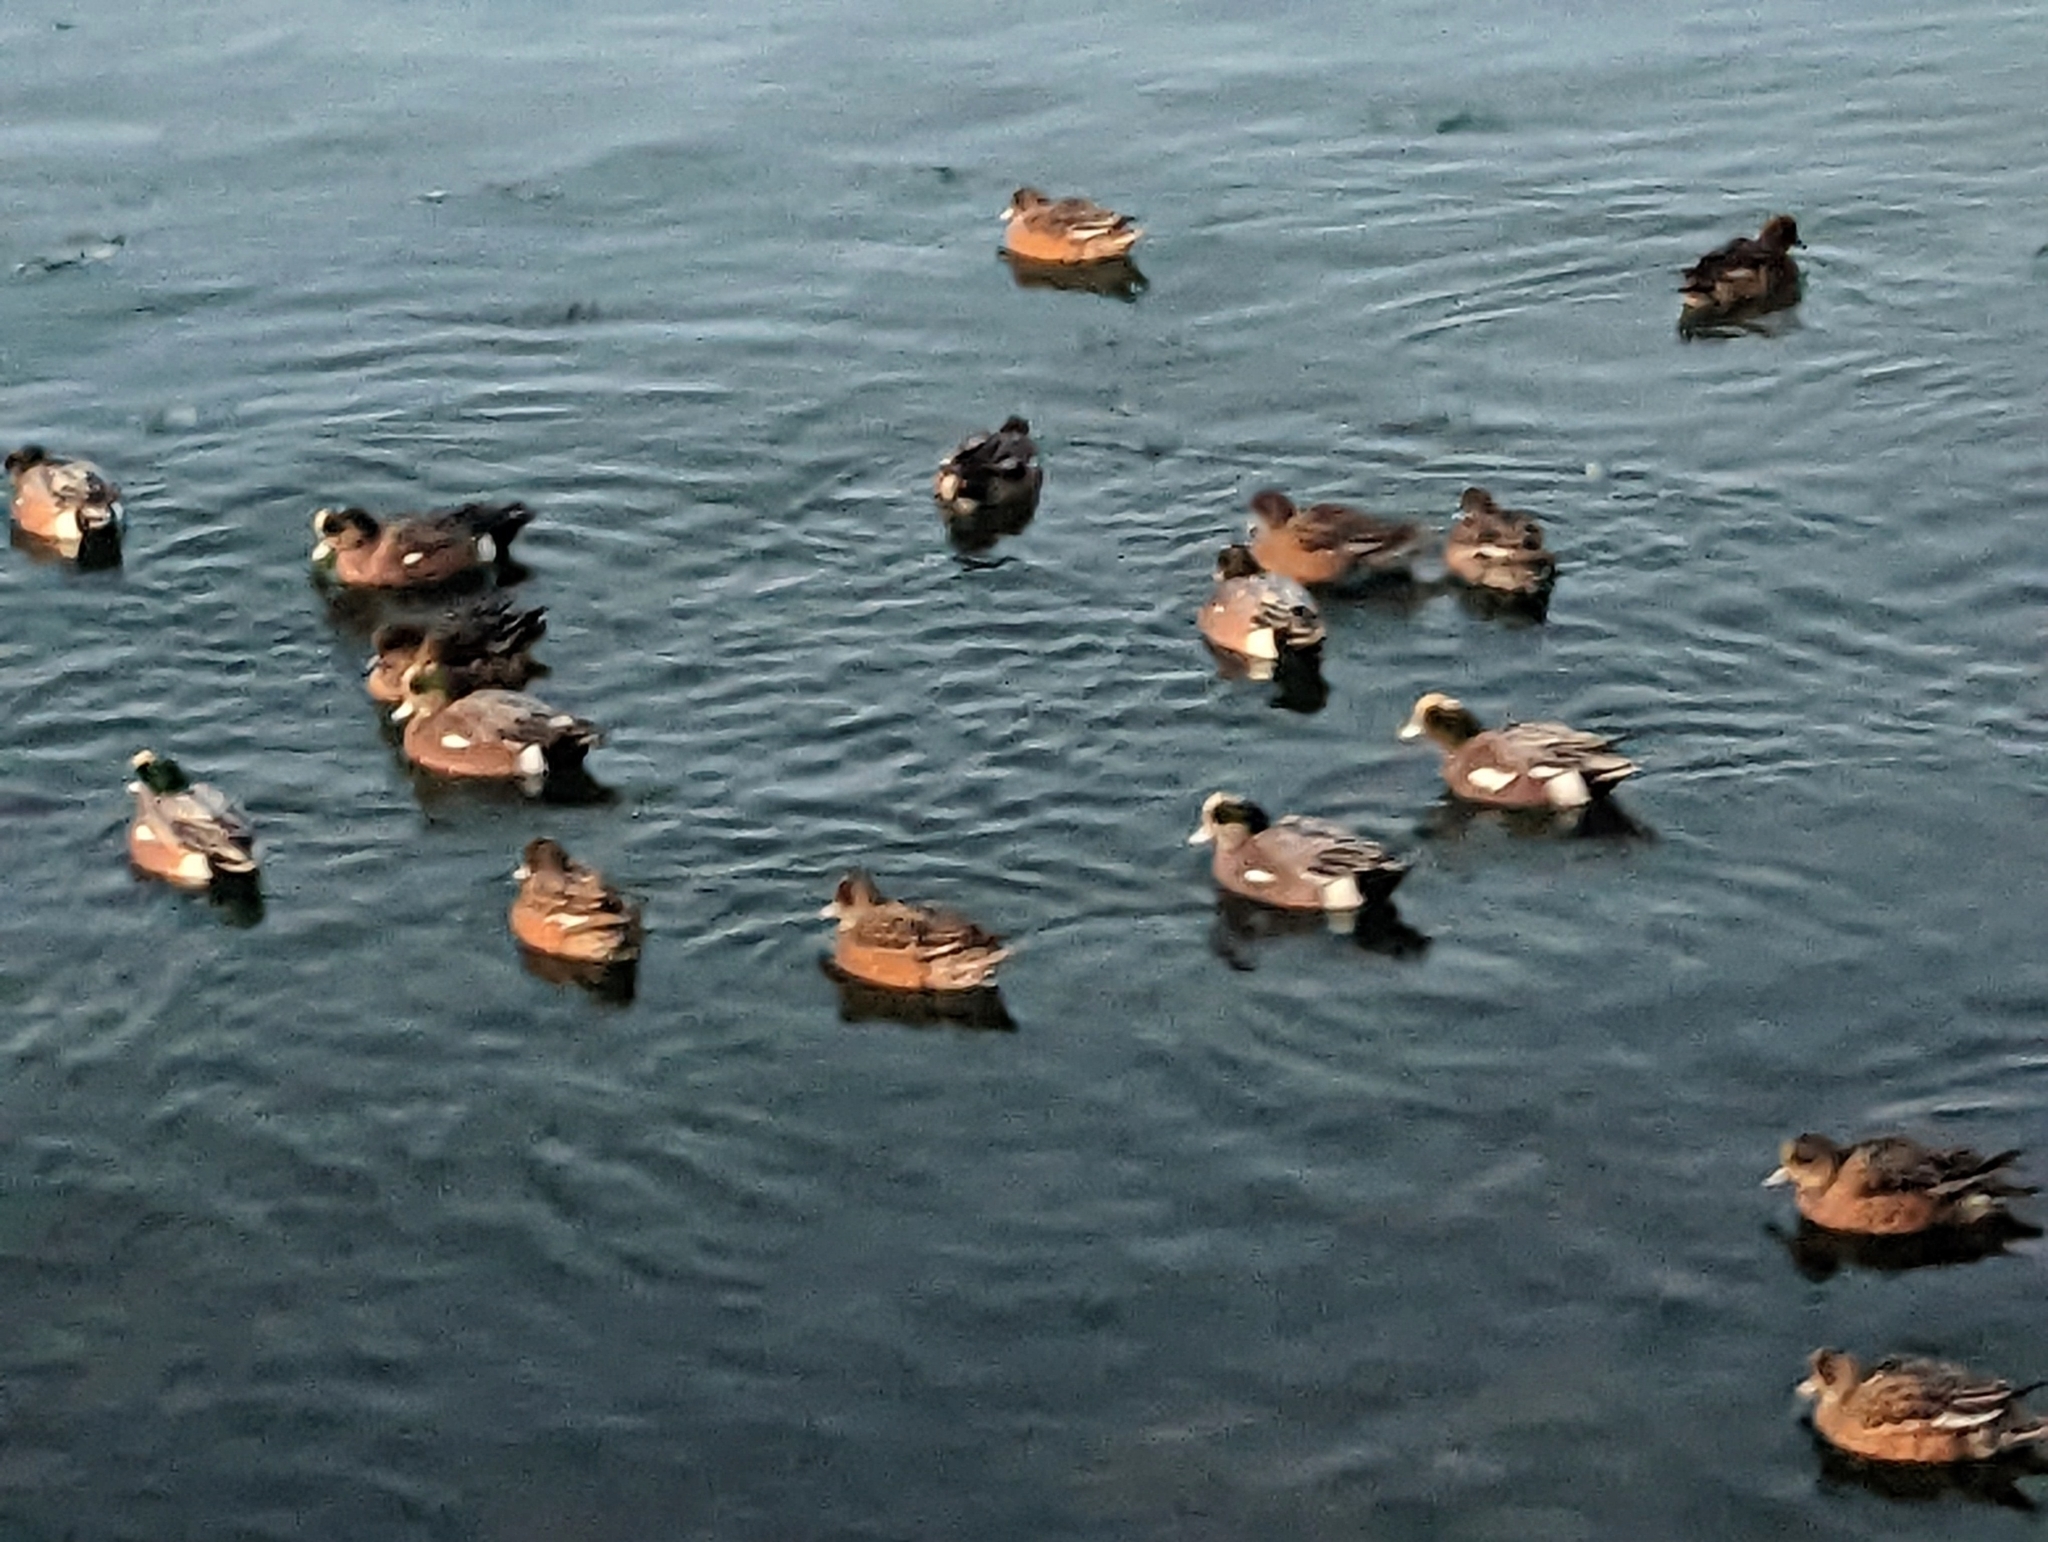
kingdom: Animalia
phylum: Chordata
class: Aves
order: Anseriformes
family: Anatidae
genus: Mareca
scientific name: Mareca americana
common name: American wigeon
